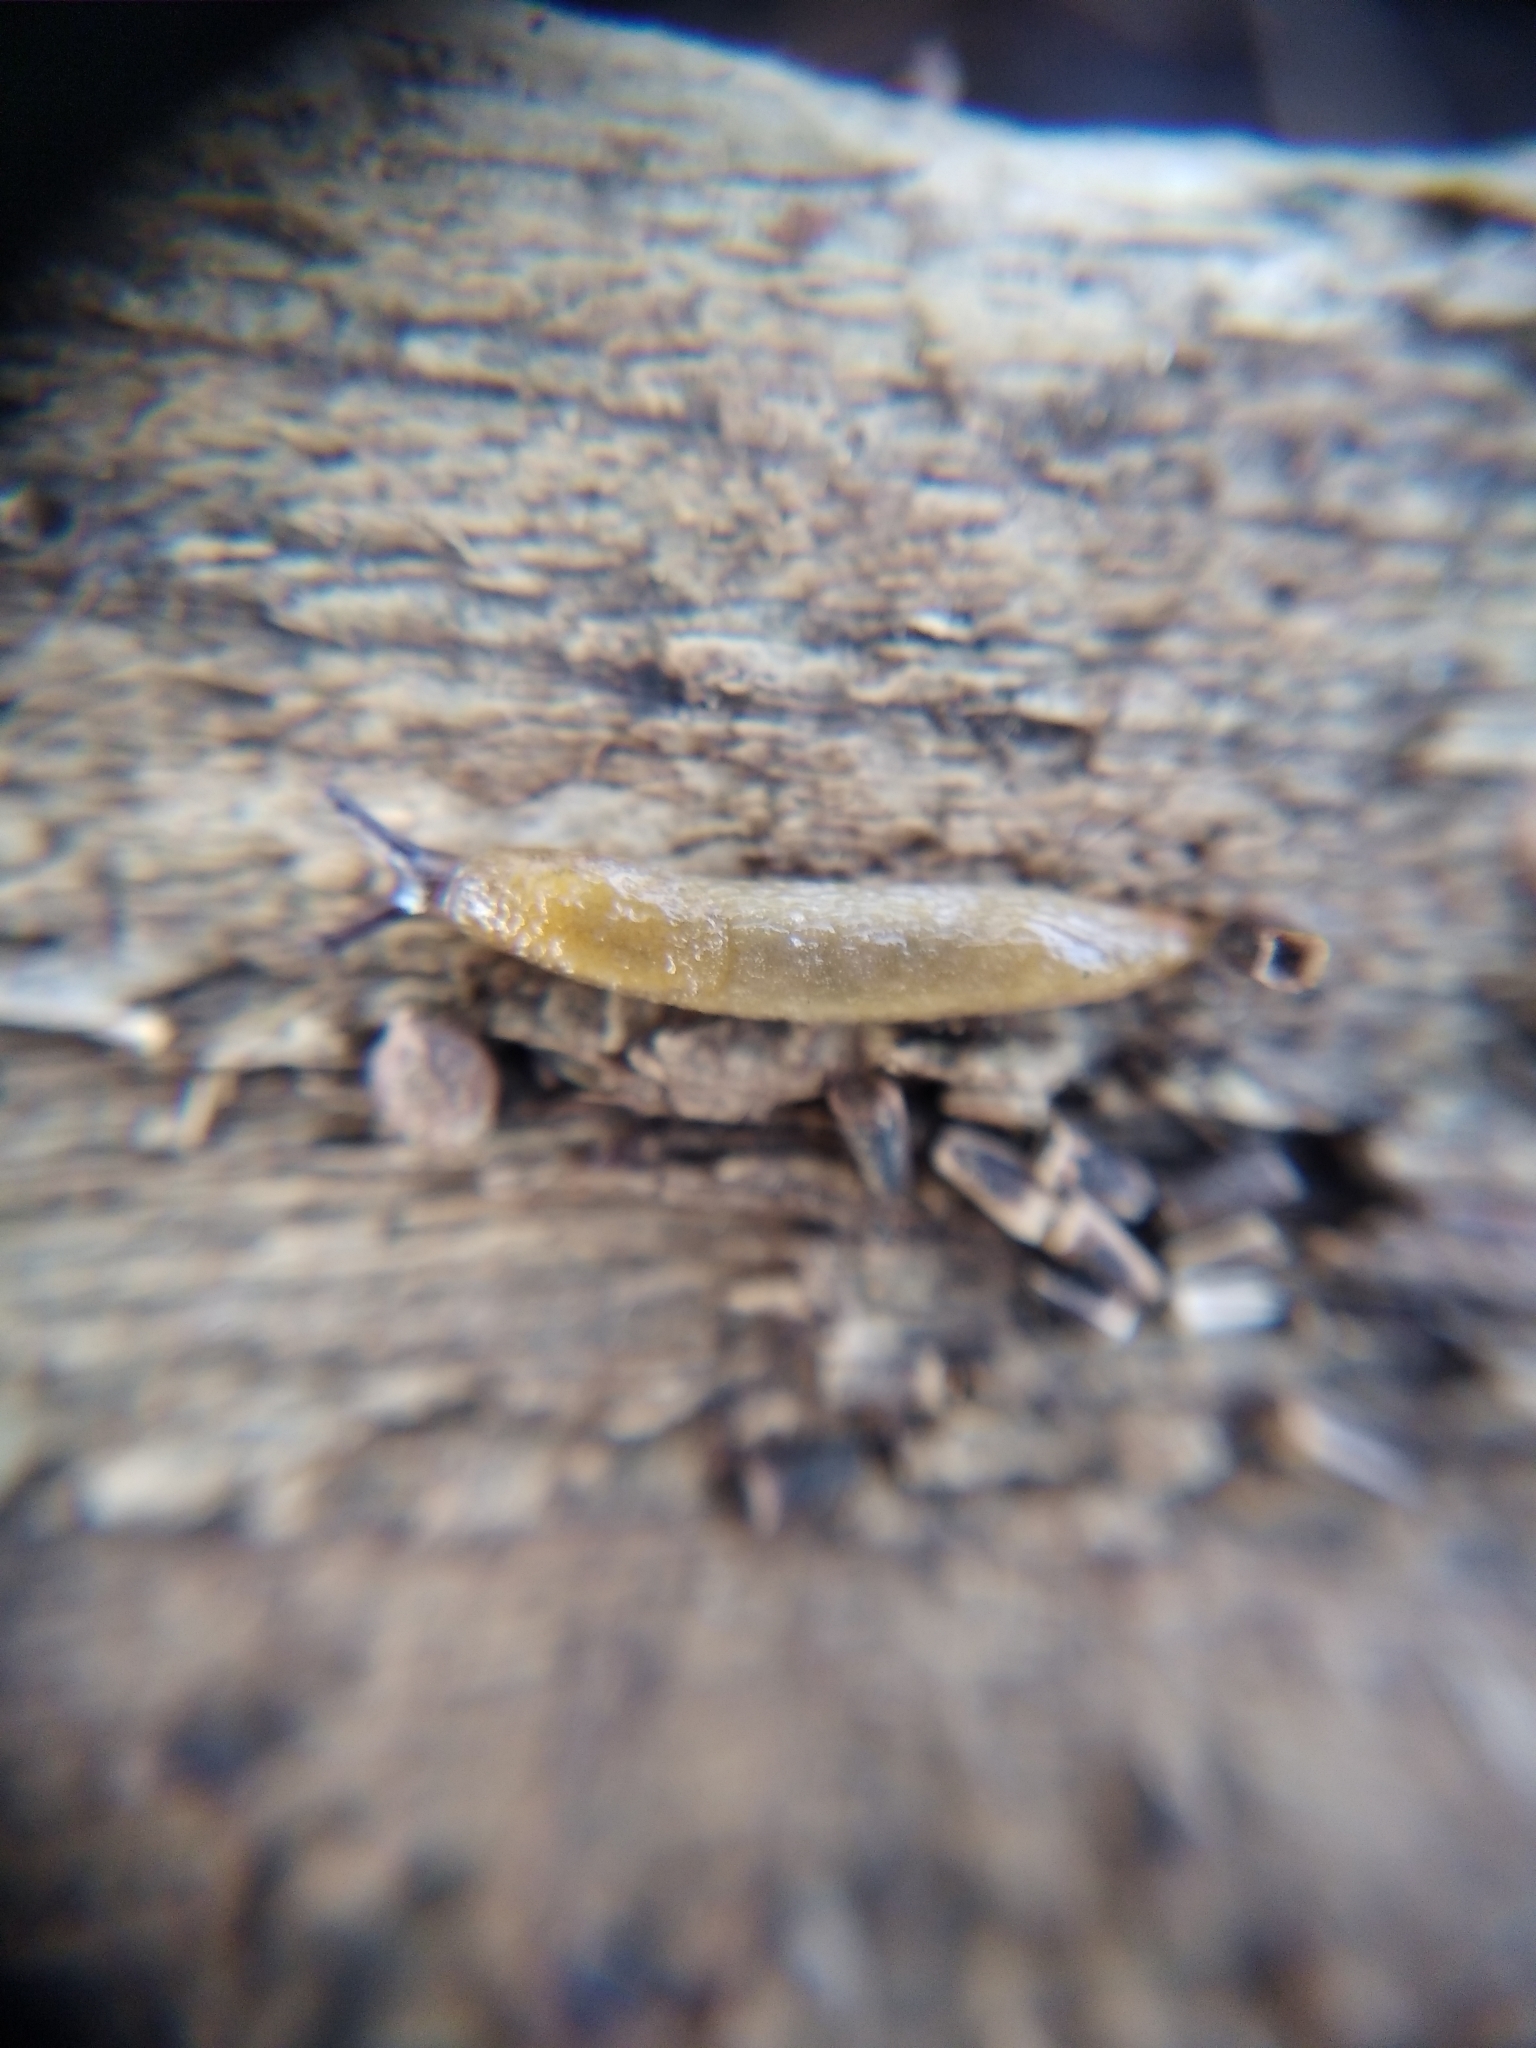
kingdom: Animalia
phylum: Mollusca
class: Gastropoda
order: Stylommatophora
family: Arionidae
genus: Arion
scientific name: Arion intermedius
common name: Hedgehog slug
